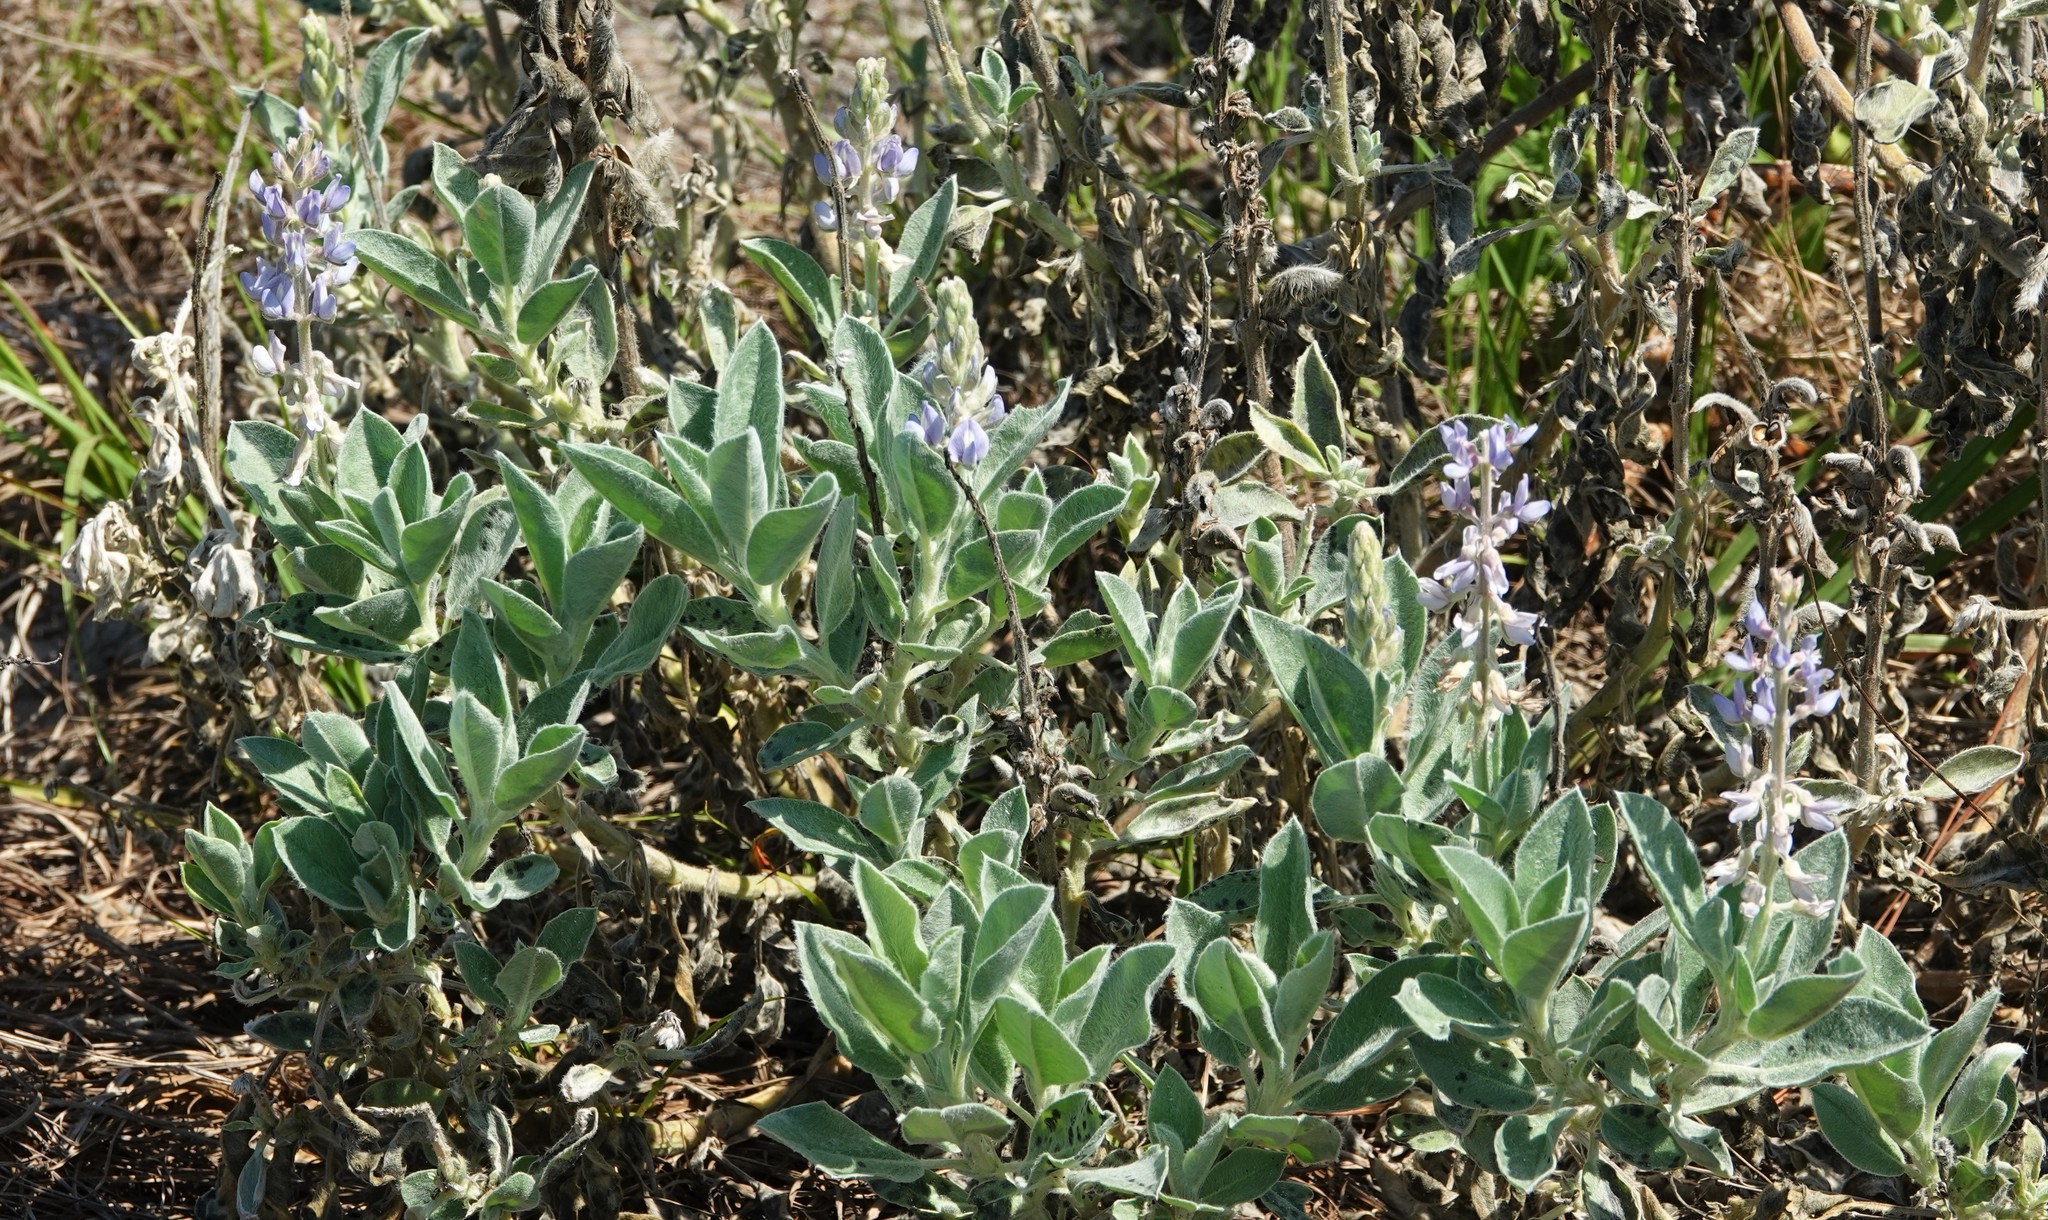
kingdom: Plantae
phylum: Tracheophyta
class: Magnoliopsida
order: Fabales
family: Fabaceae
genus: Lupinus
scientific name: Lupinus
